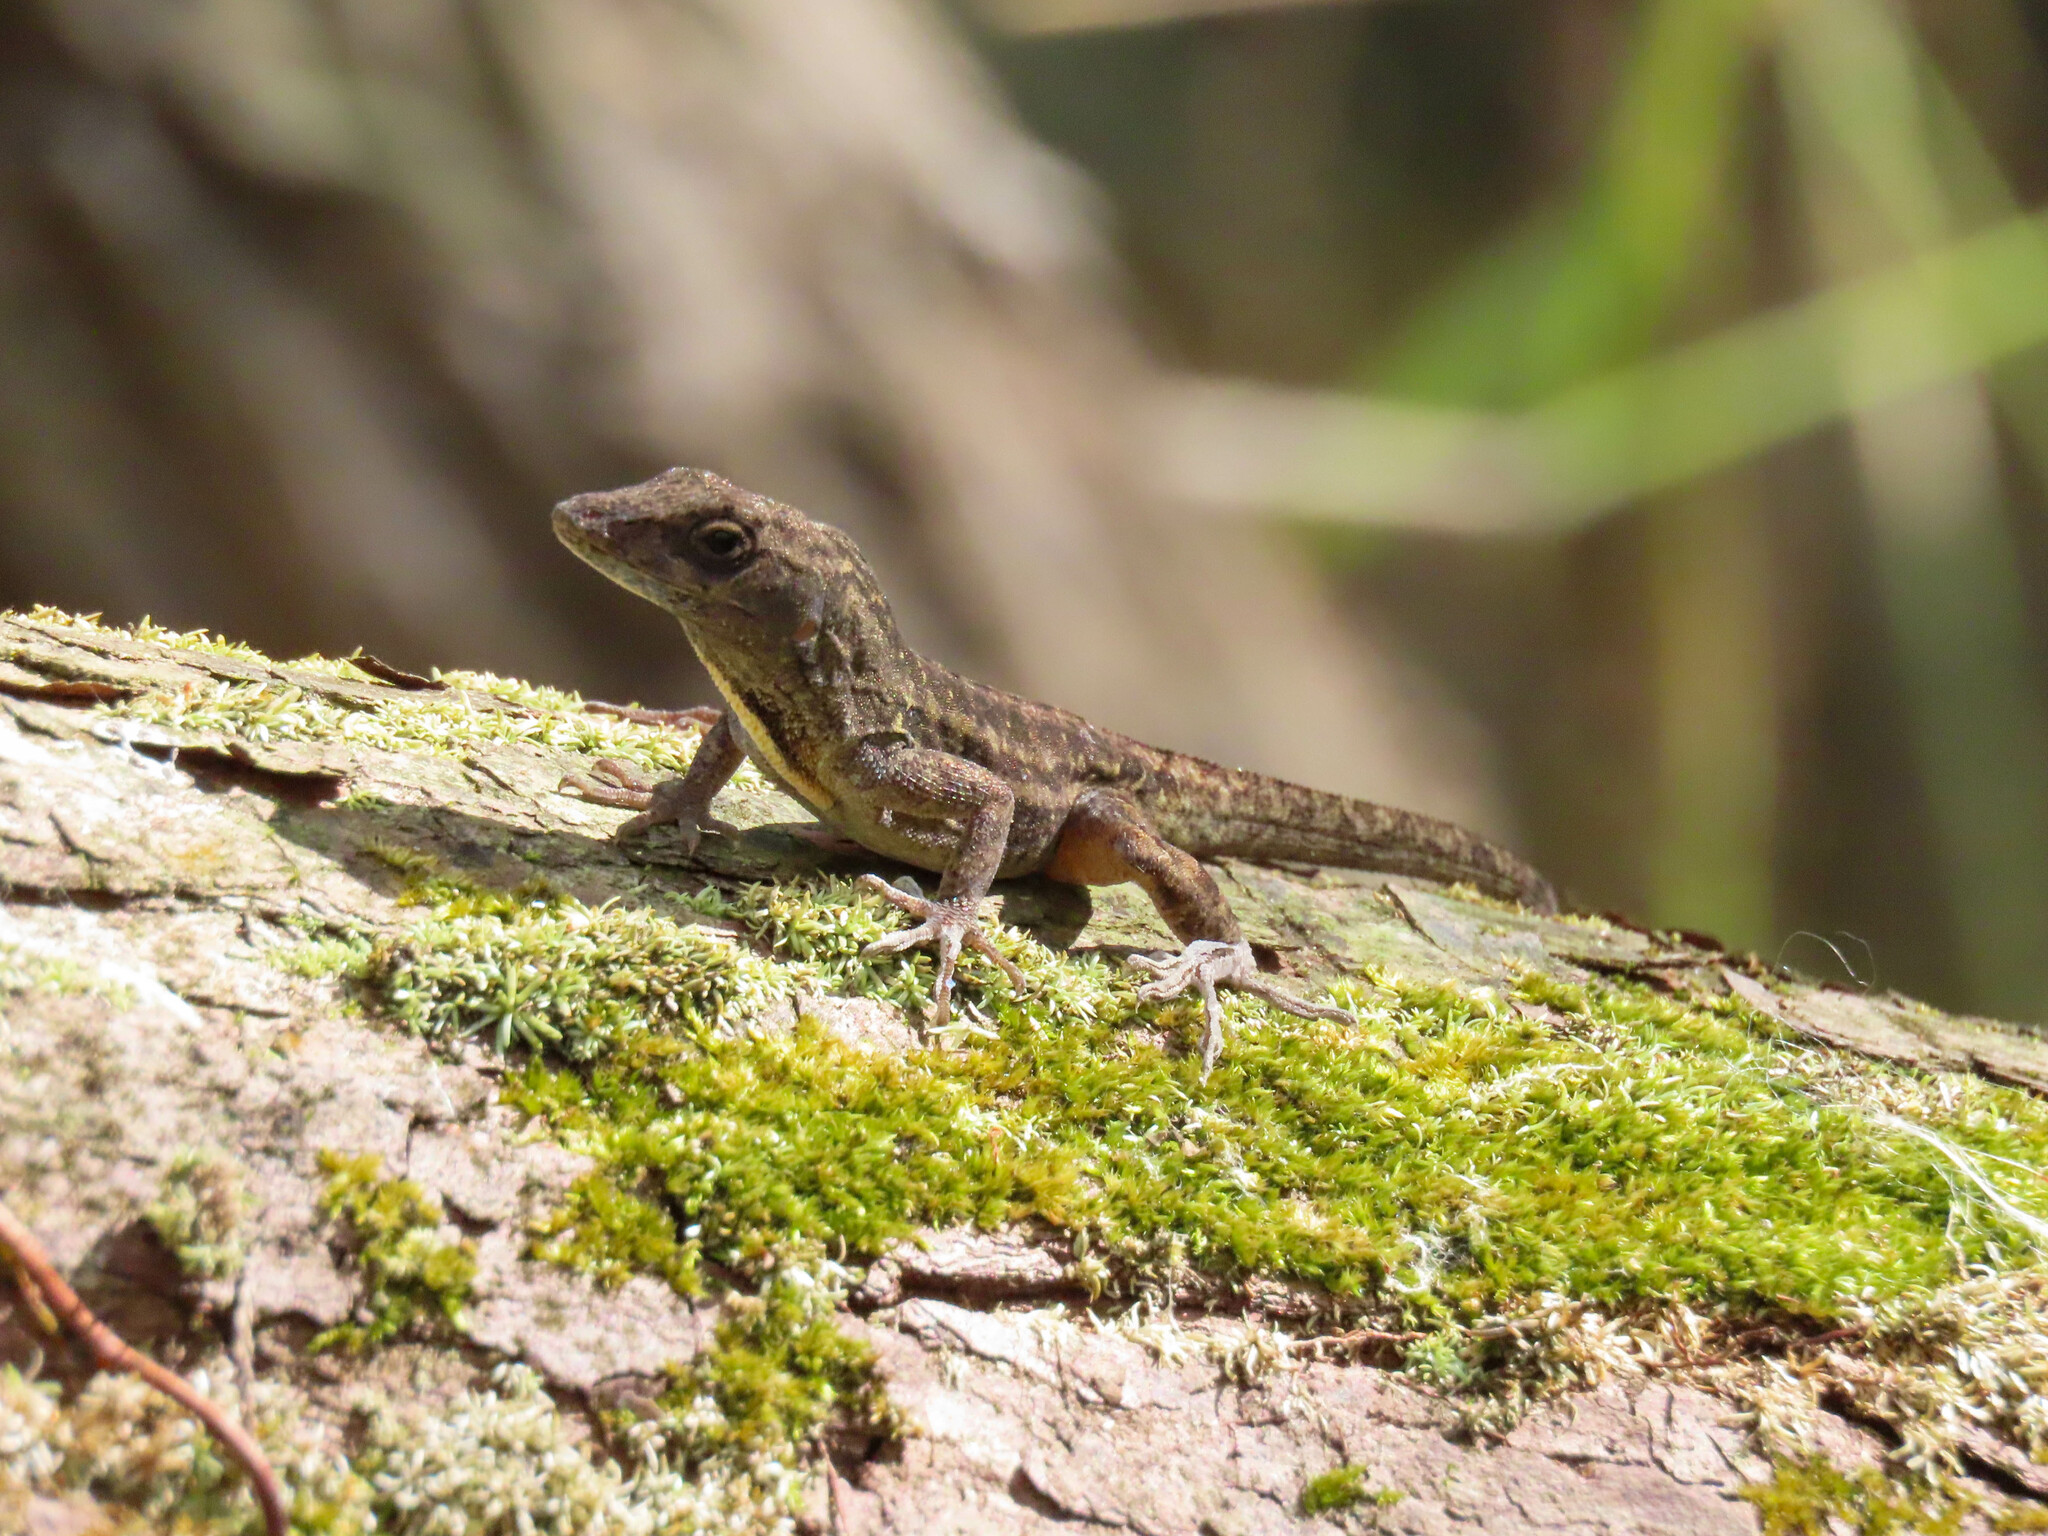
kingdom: Animalia
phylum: Chordata
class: Squamata
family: Dactyloidae
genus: Anolis
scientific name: Anolis sagrei
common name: Brown anole
